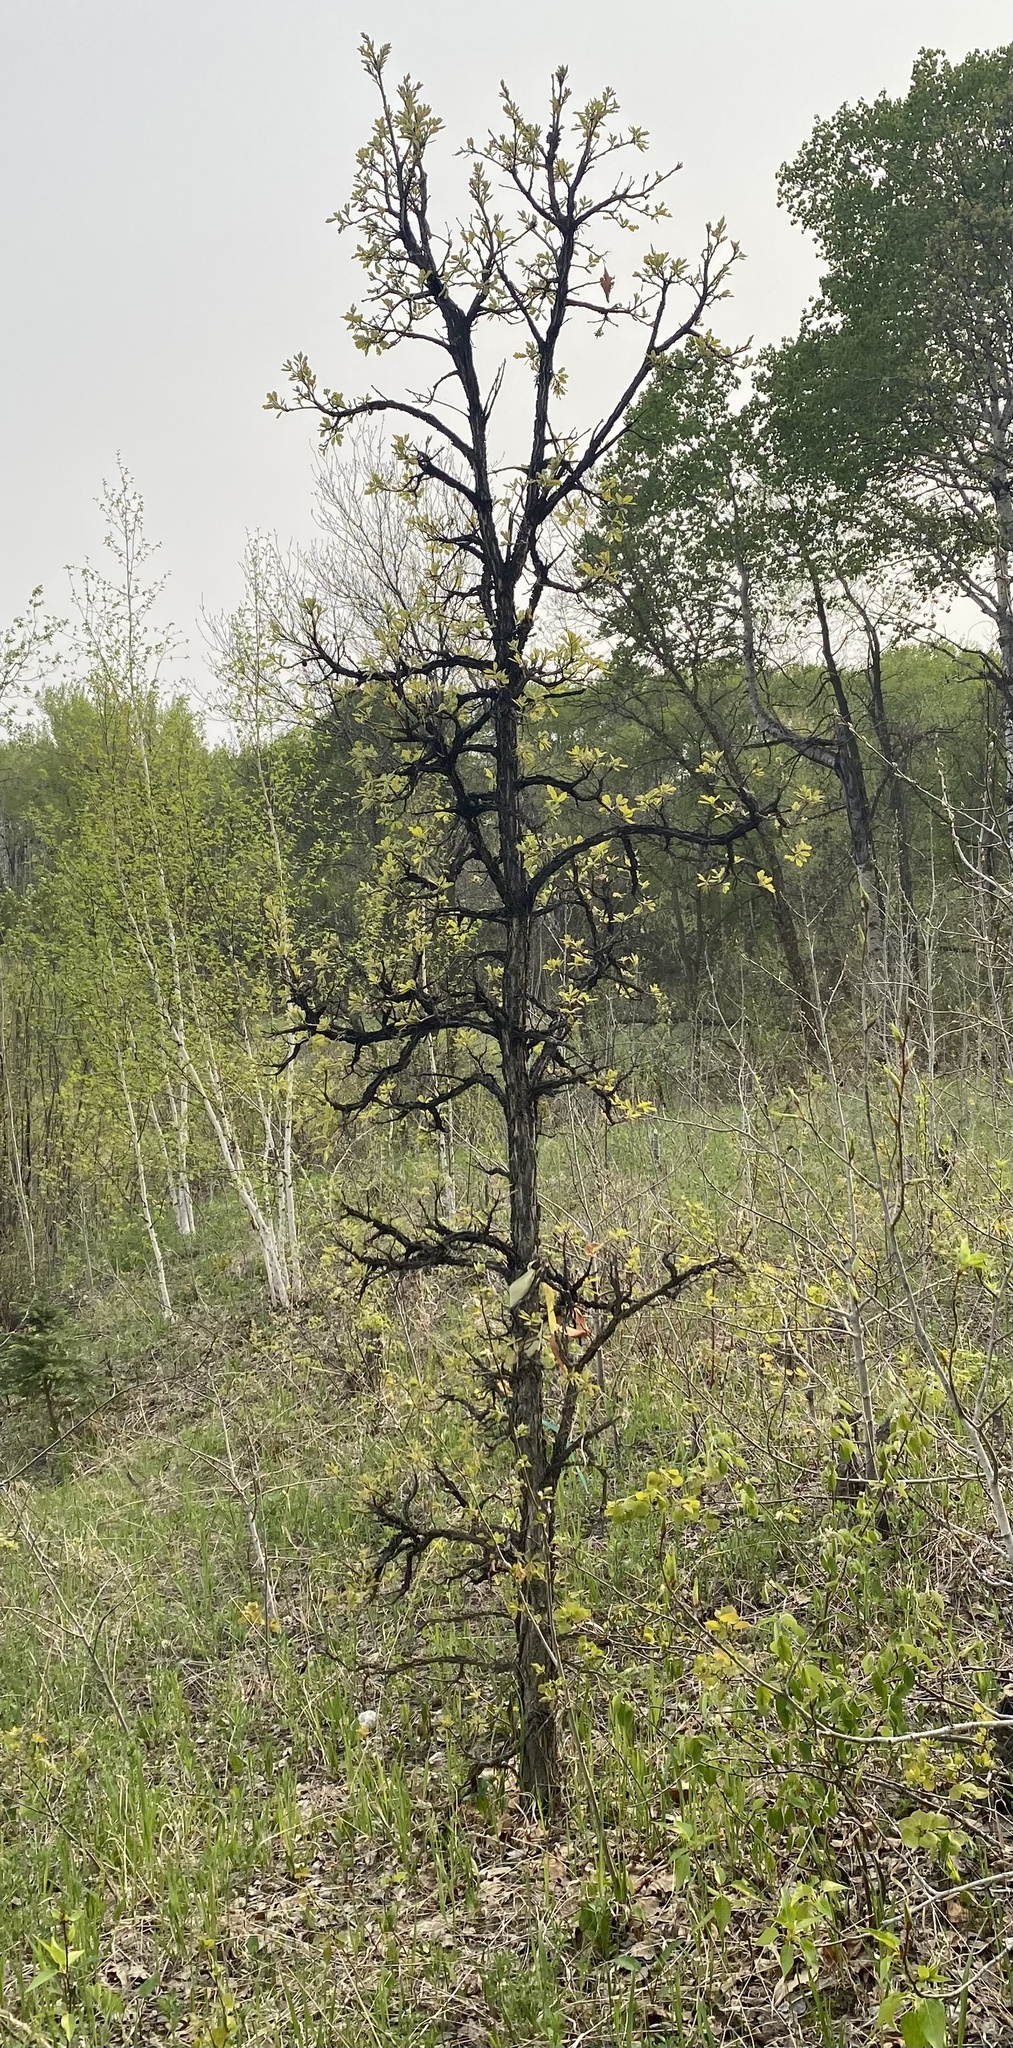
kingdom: Plantae
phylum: Tracheophyta
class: Magnoliopsida
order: Fagales
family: Fagaceae
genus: Quercus
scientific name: Quercus macrocarpa
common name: Bur oak
